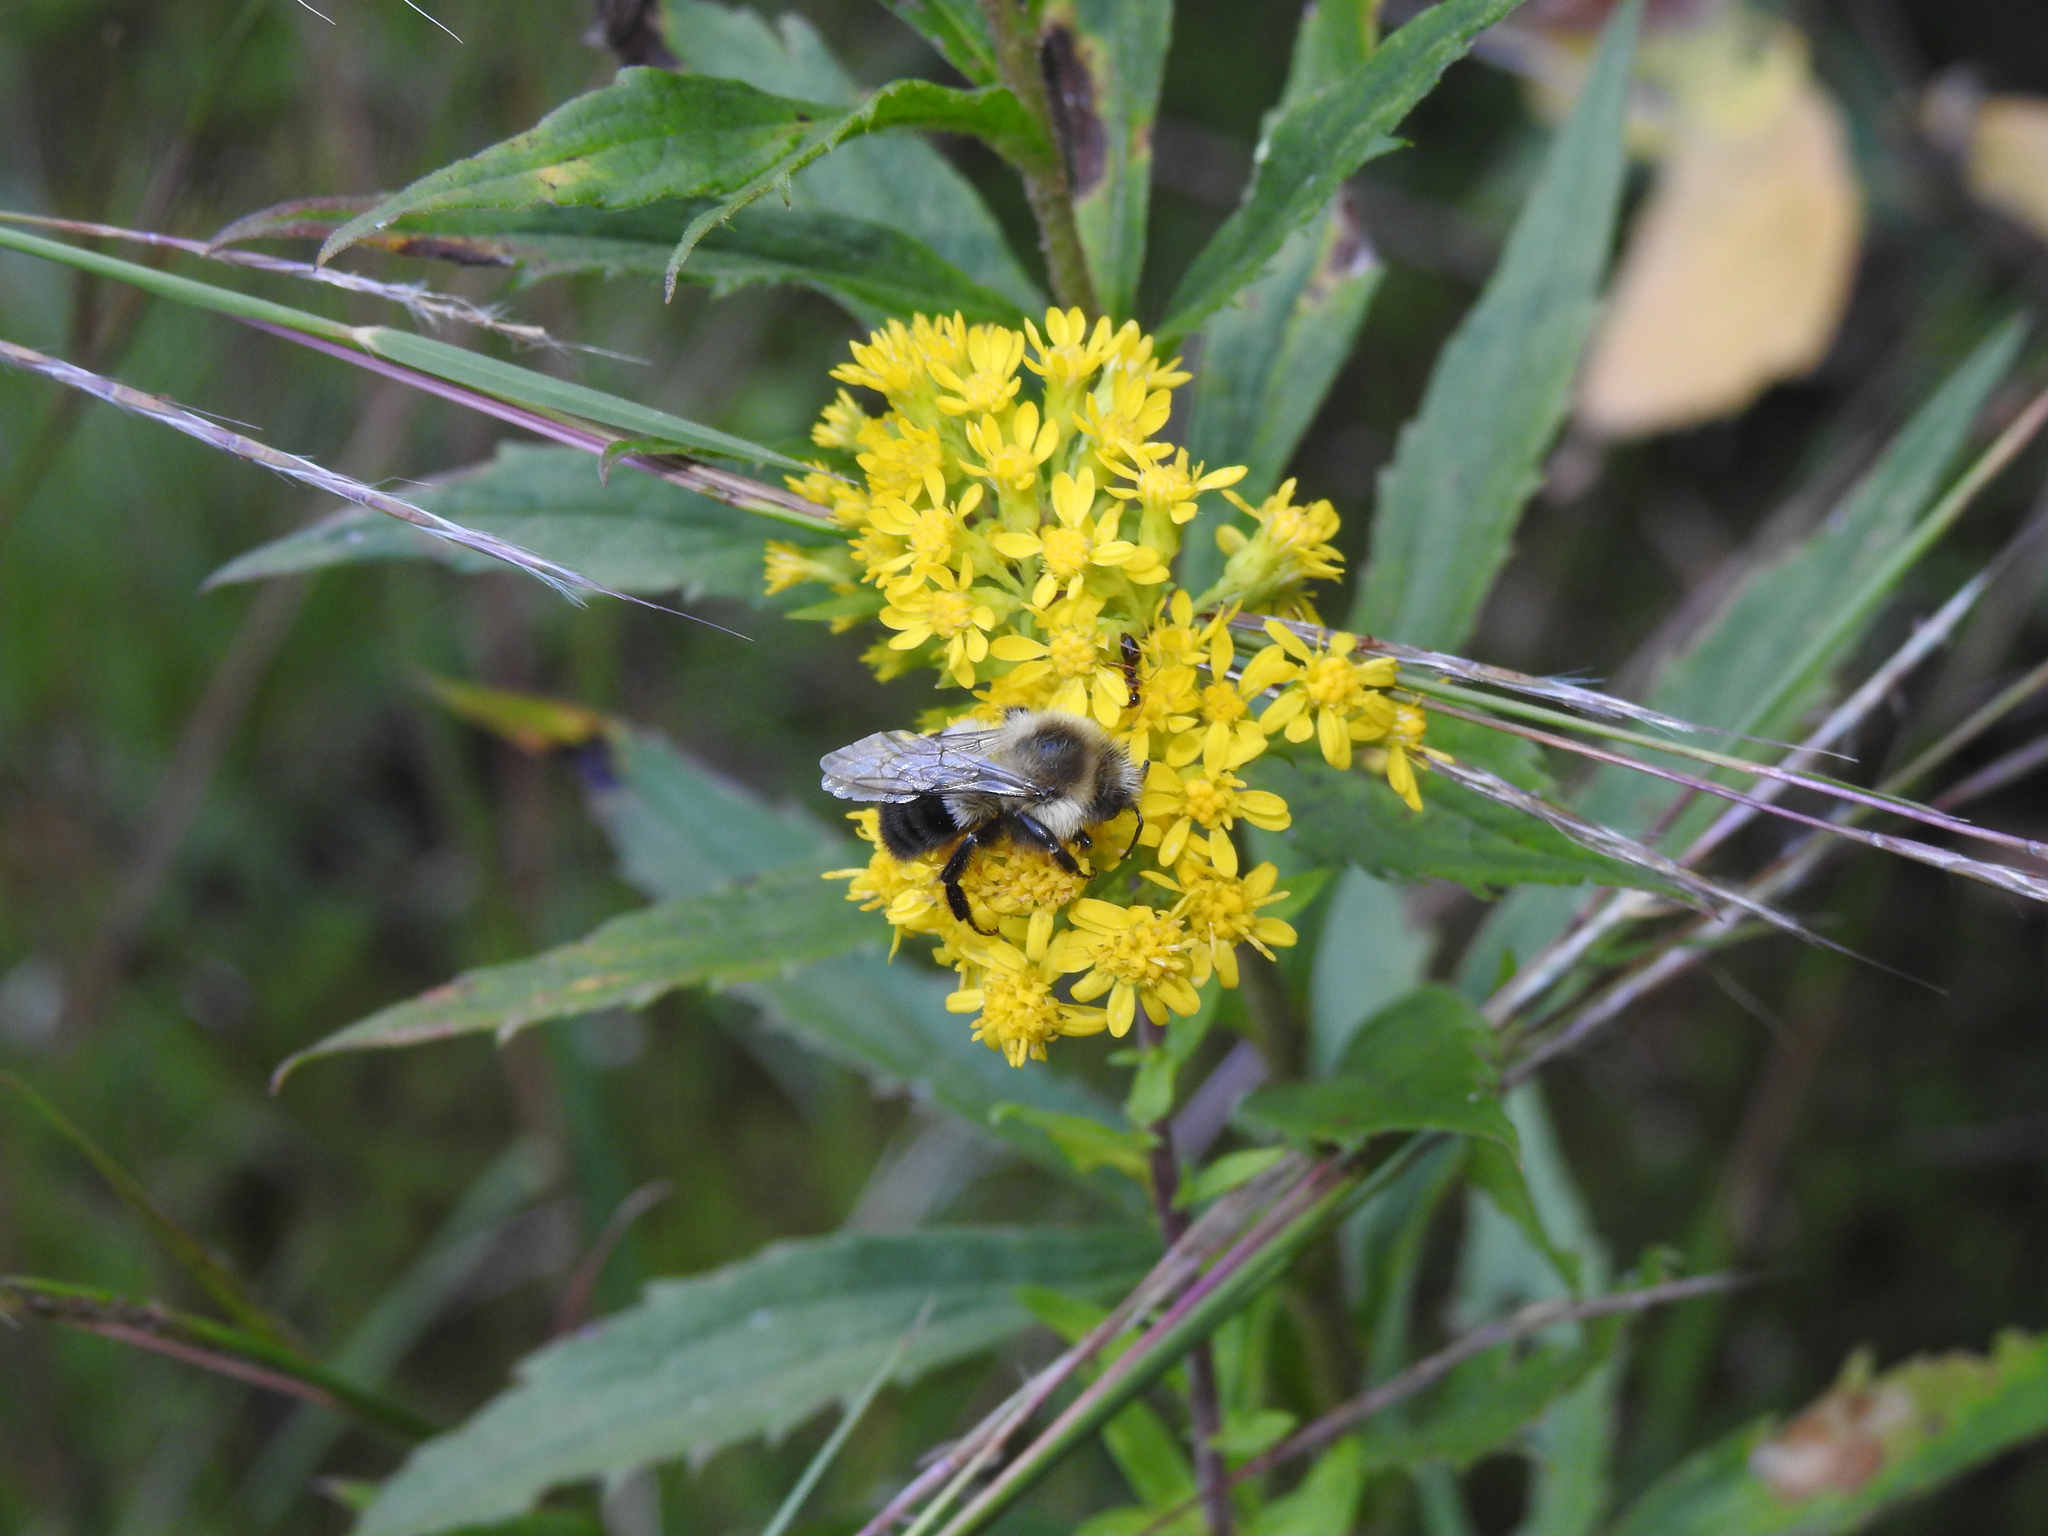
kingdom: Animalia
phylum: Arthropoda
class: Insecta
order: Hymenoptera
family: Apidae
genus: Bombus
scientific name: Bombus impatiens
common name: Common eastern bumble bee
